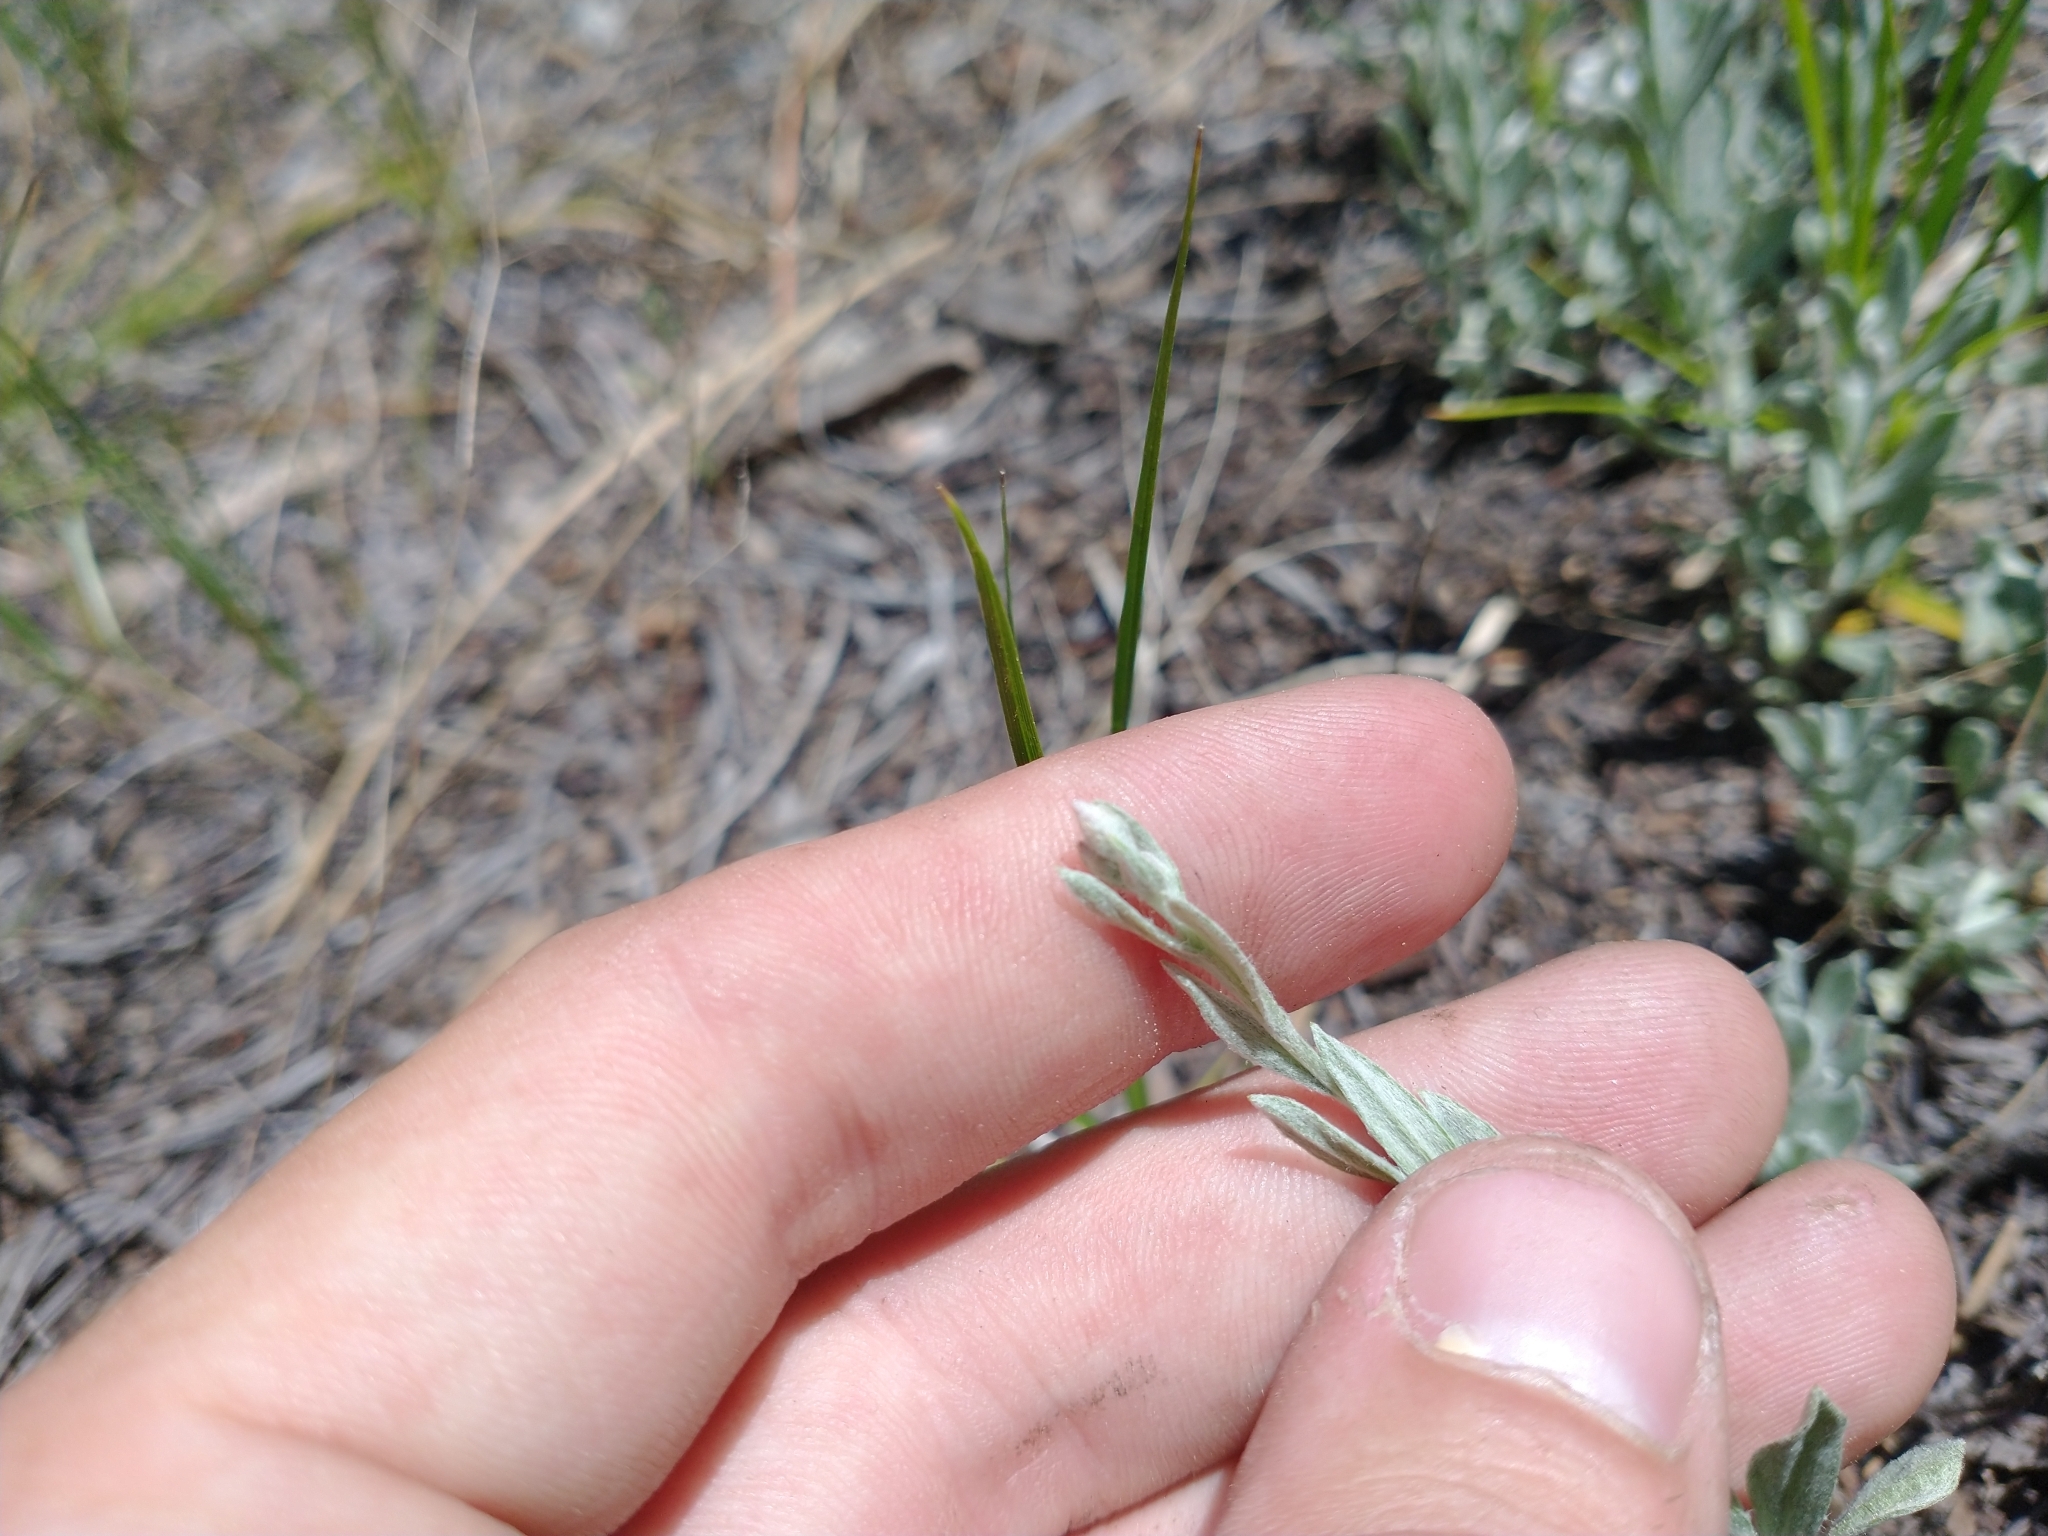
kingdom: Plantae
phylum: Tracheophyta
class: Magnoliopsida
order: Asterales
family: Asteraceae
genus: Antennaria
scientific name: Antennaria geyeri
